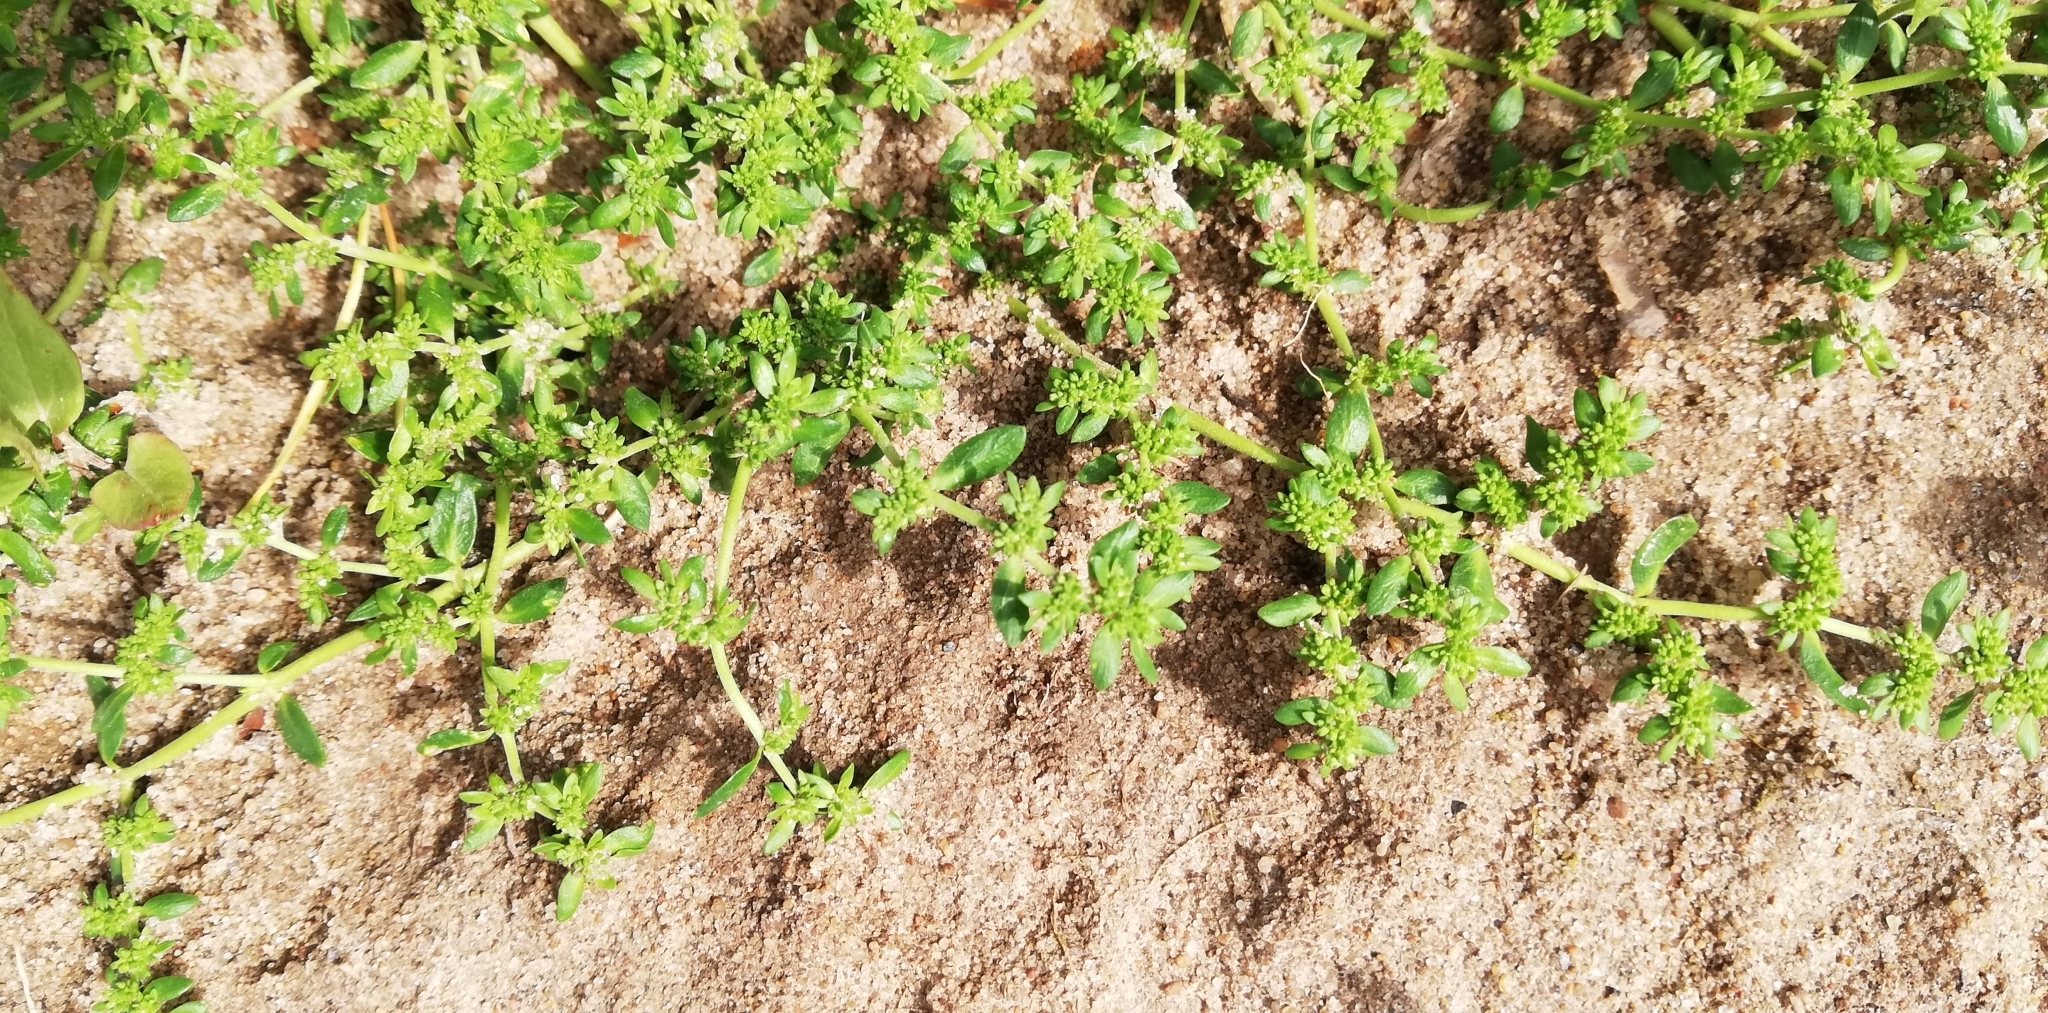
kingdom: Plantae
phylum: Tracheophyta
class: Magnoliopsida
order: Caryophyllales
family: Caryophyllaceae
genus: Herniaria
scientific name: Herniaria glabra
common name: Smooth rupturewort
